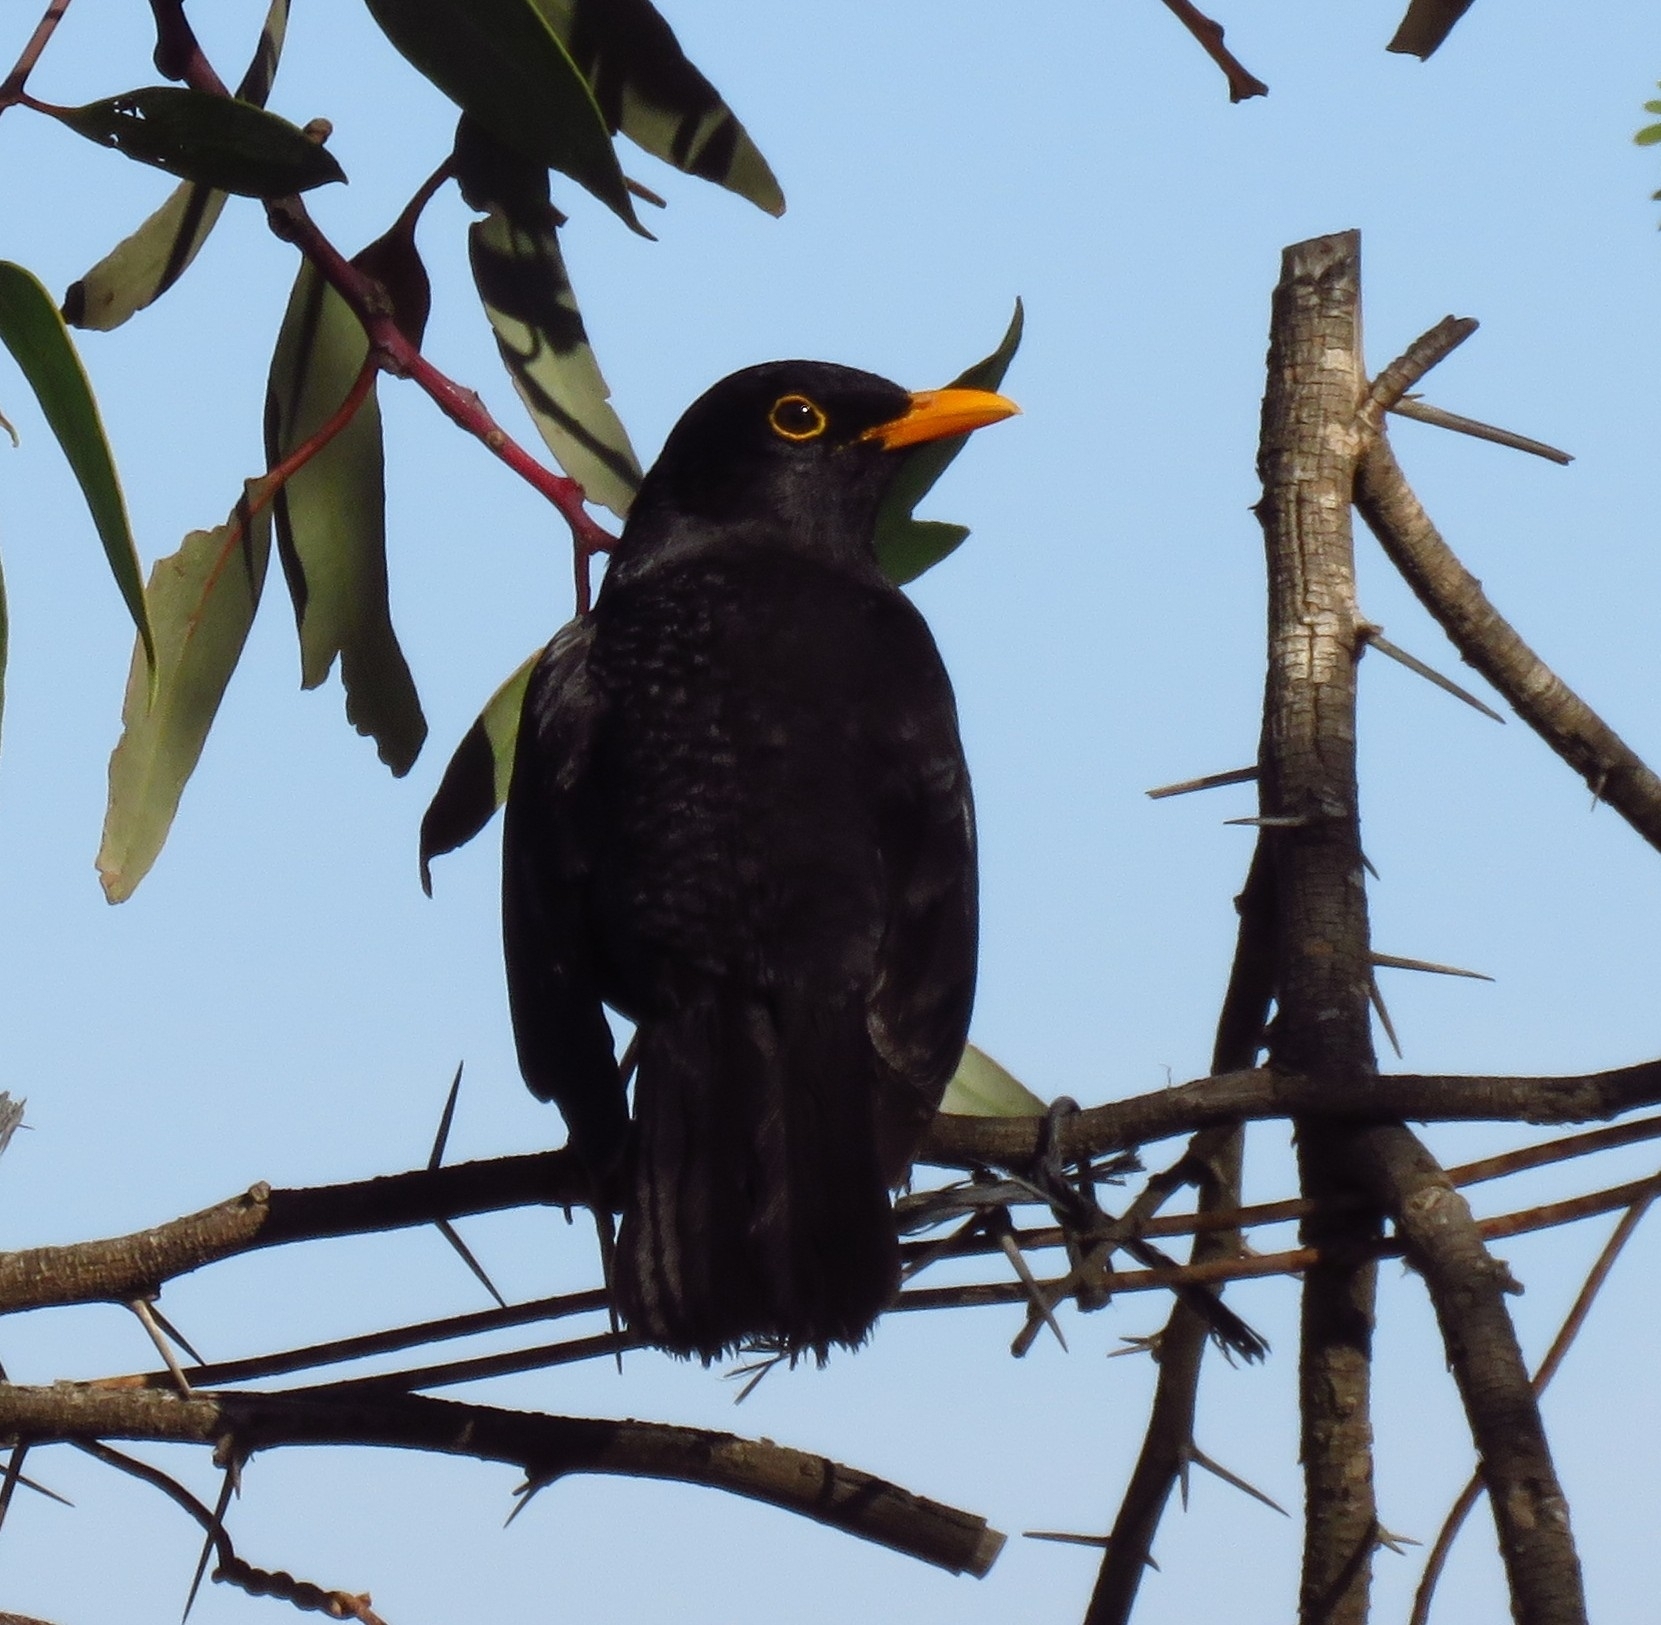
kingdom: Animalia
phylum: Chordata
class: Aves
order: Passeriformes
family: Turdidae
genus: Turdus
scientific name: Turdus merula
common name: Common blackbird
